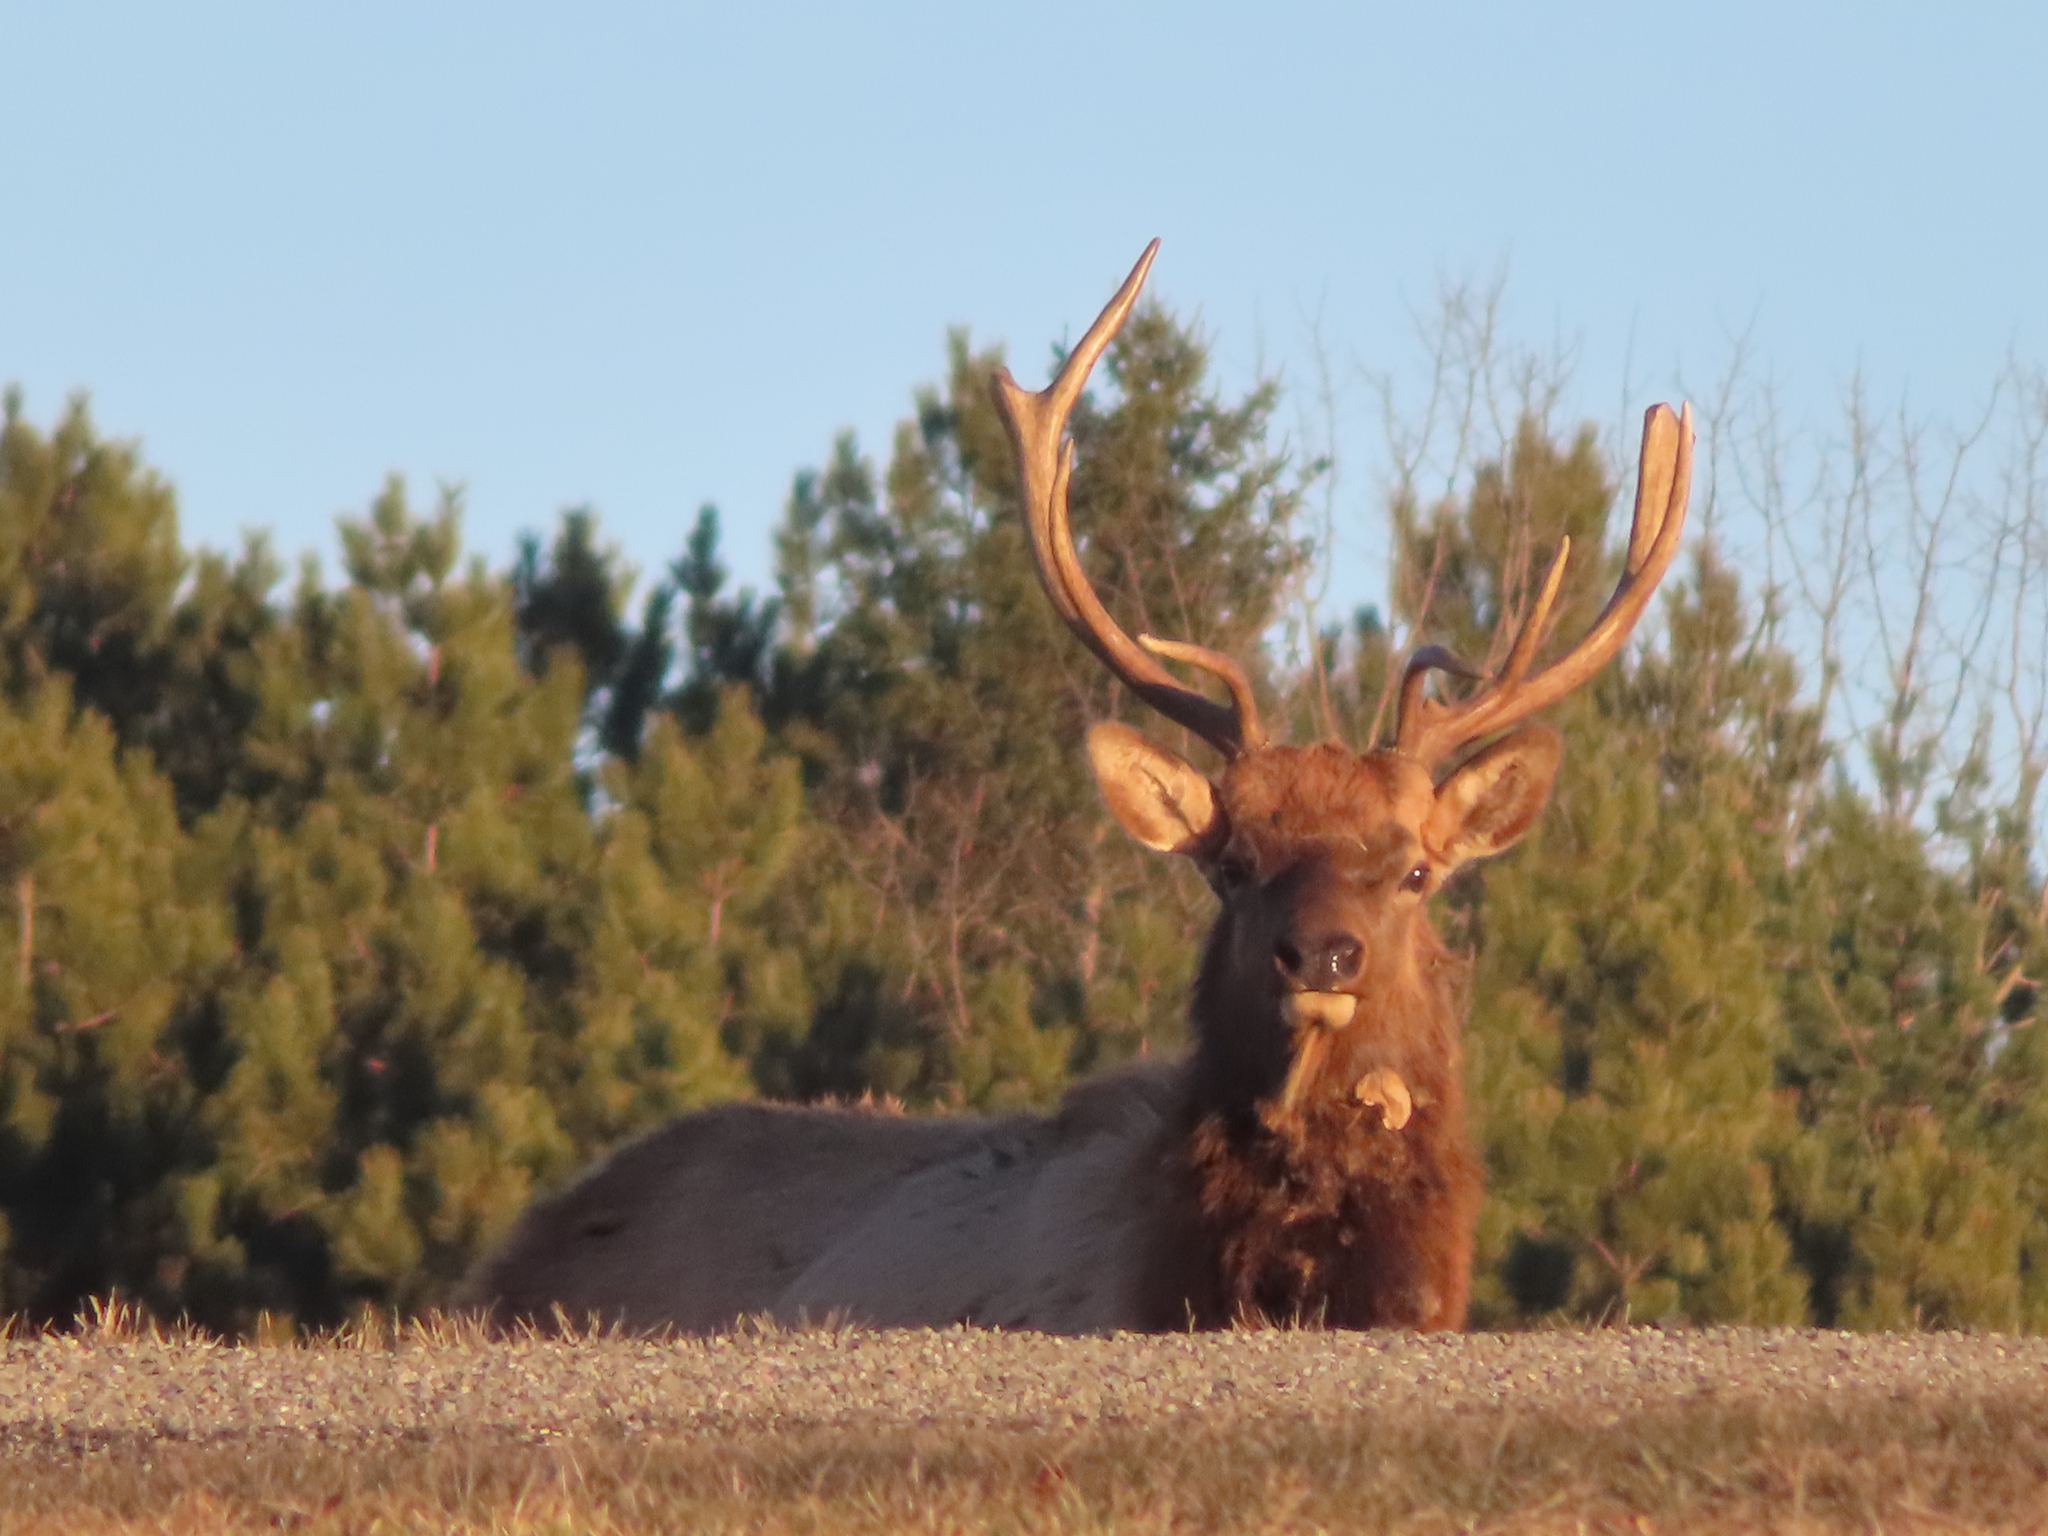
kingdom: Animalia
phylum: Chordata
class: Mammalia
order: Artiodactyla
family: Cervidae
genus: Cervus
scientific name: Cervus elaphus
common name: Red deer
